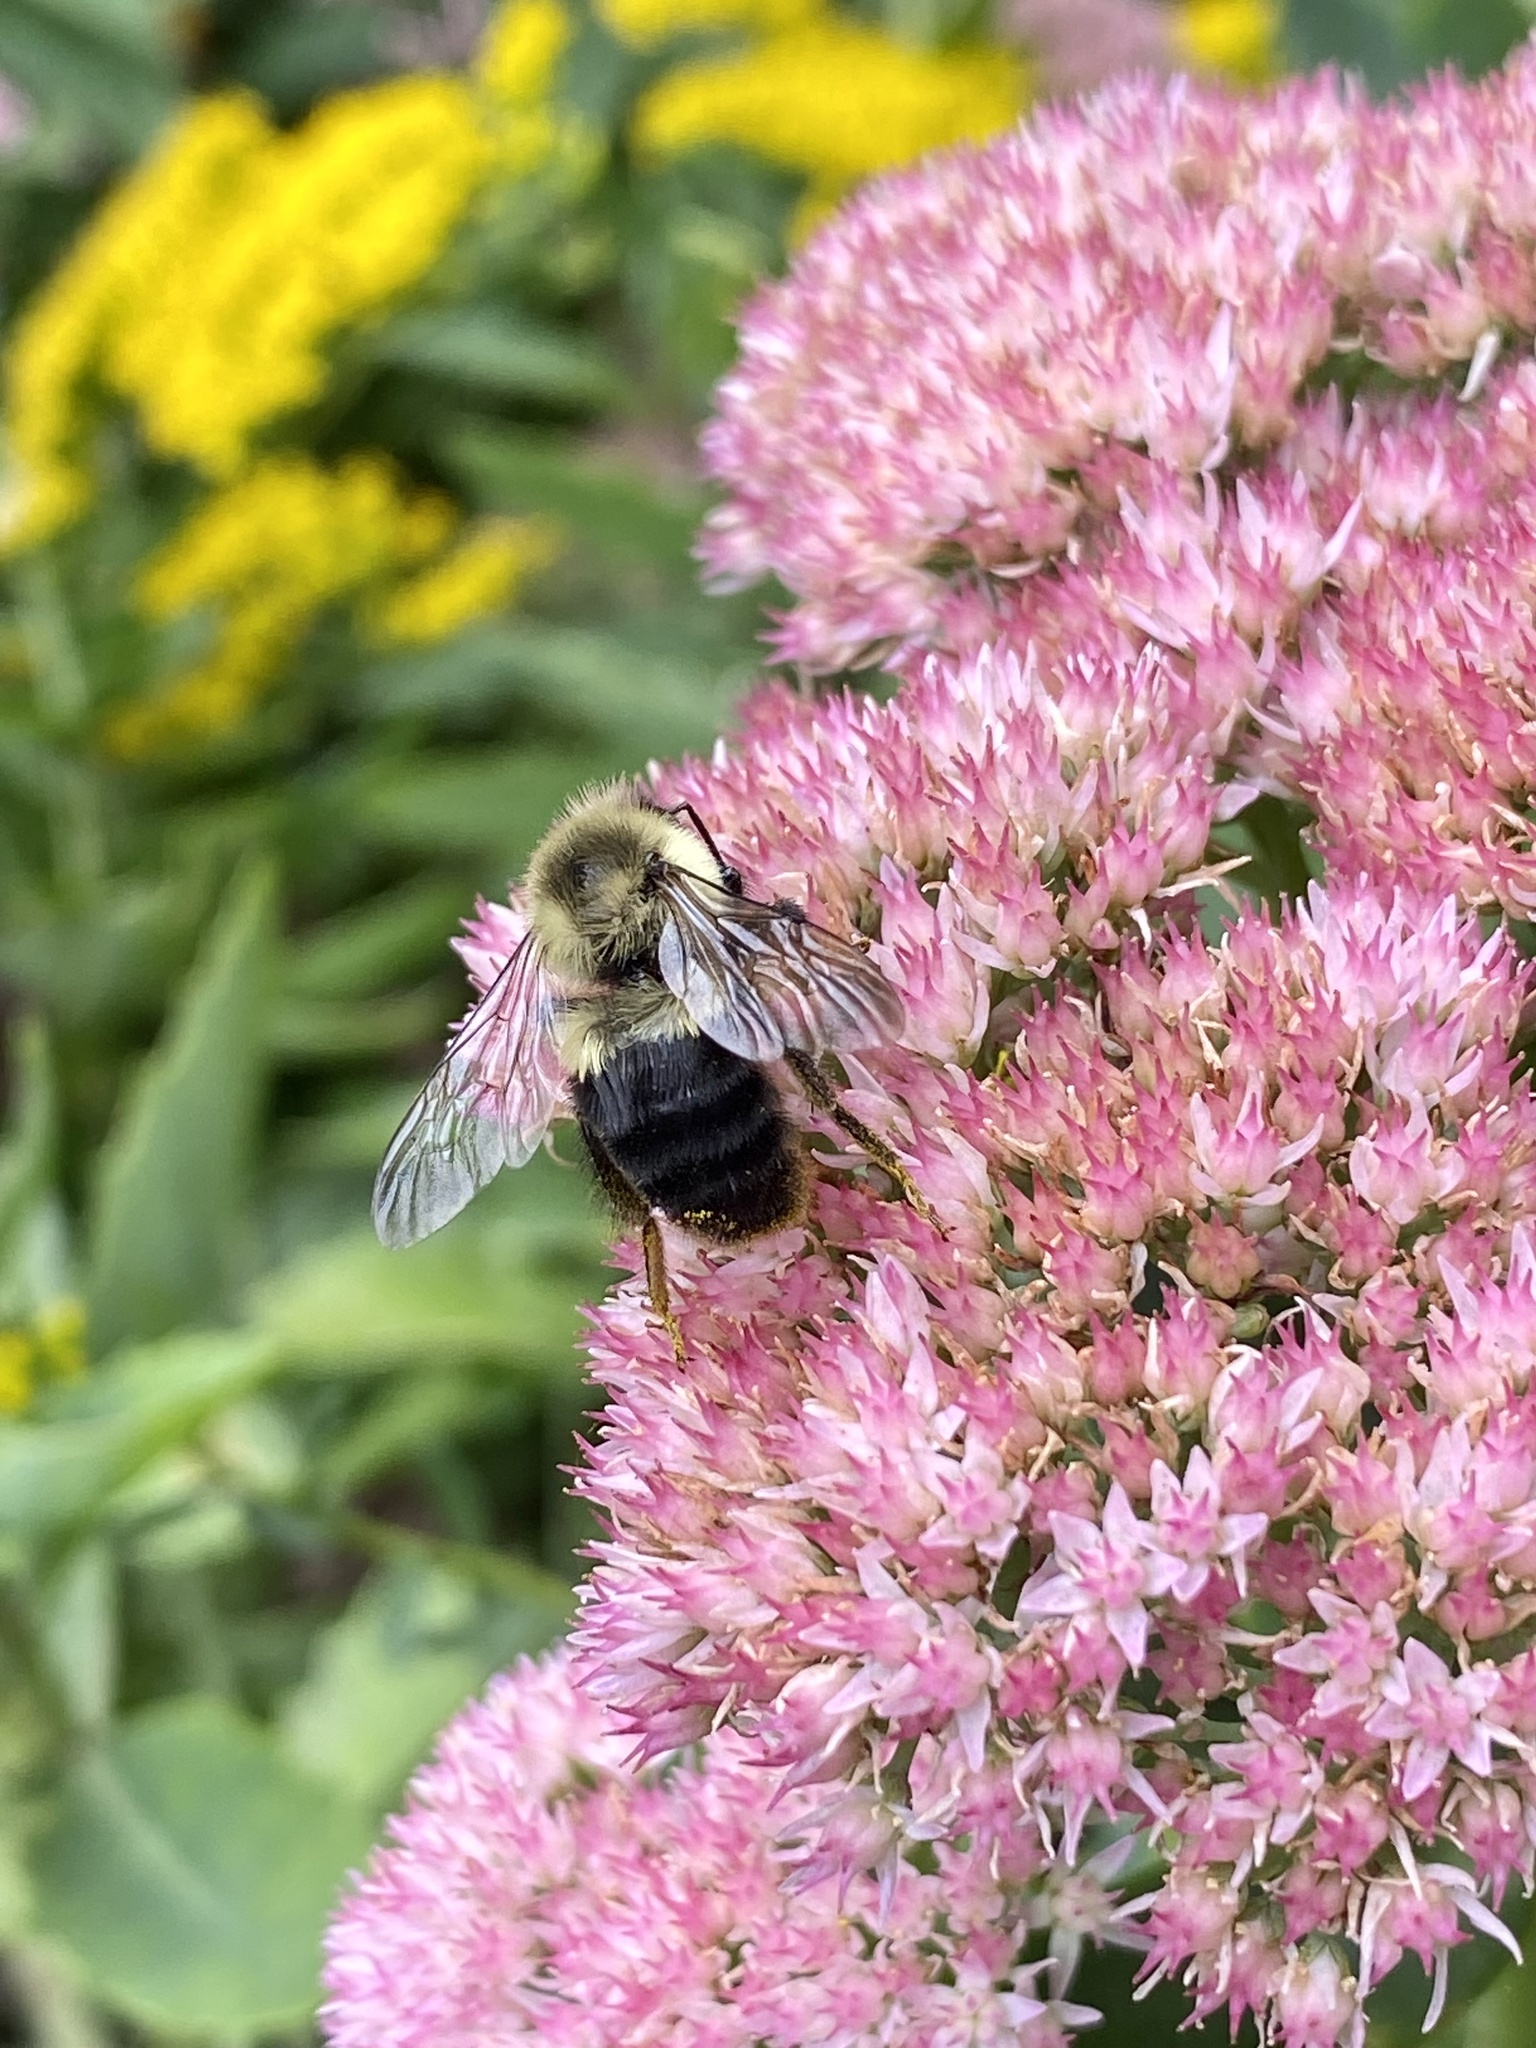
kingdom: Animalia
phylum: Arthropoda
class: Insecta
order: Hymenoptera
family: Apidae
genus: Bombus
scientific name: Bombus impatiens
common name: Common eastern bumble bee
